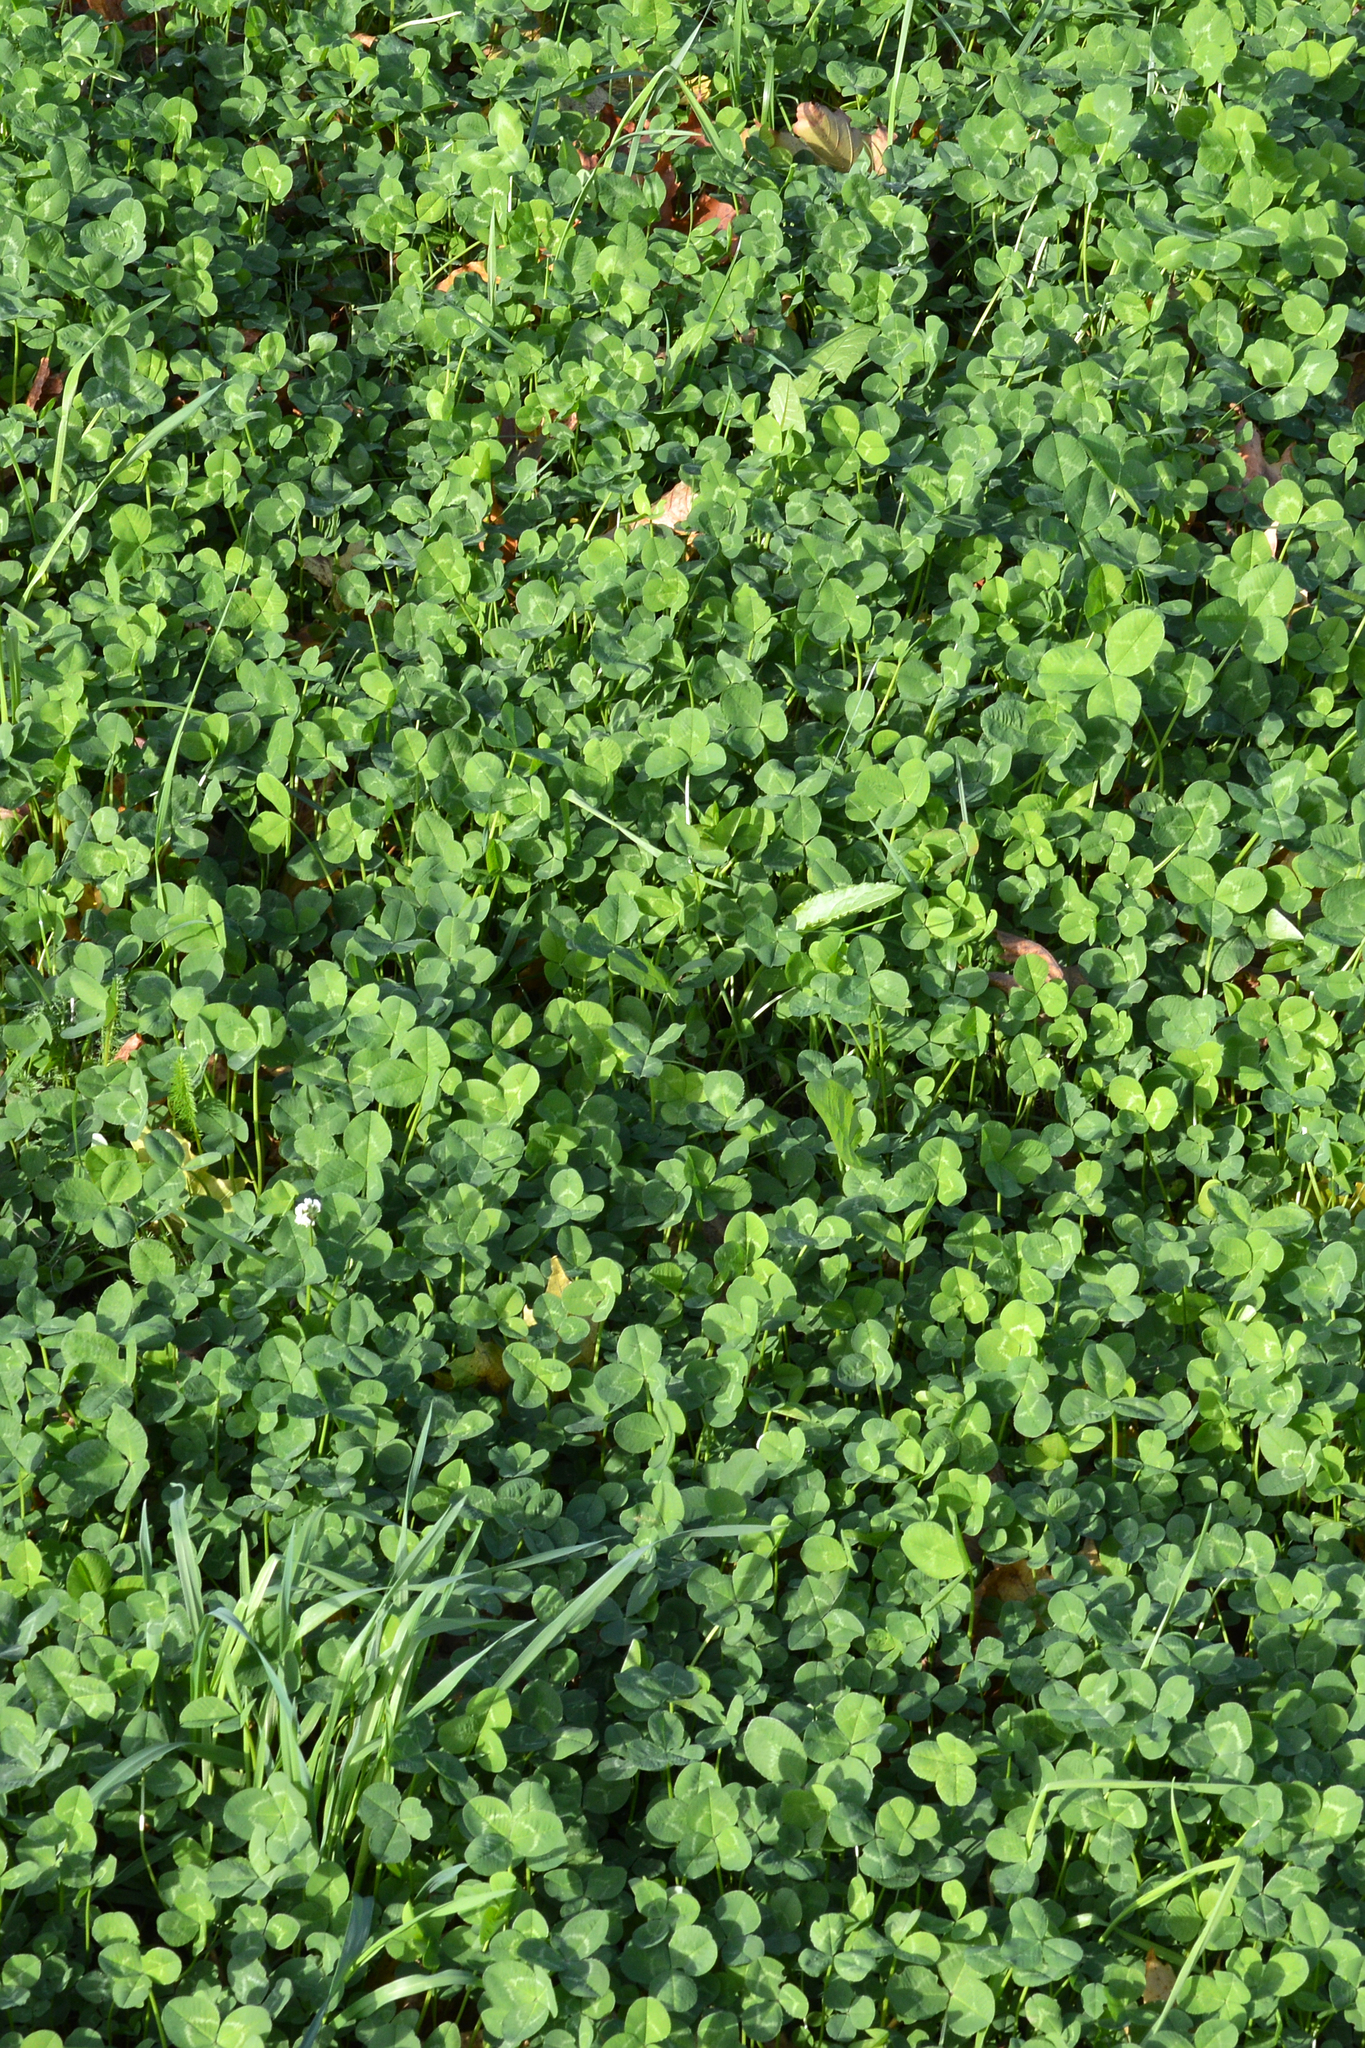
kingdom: Plantae
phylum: Tracheophyta
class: Magnoliopsida
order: Fabales
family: Fabaceae
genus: Trifolium
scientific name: Trifolium repens
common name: White clover
